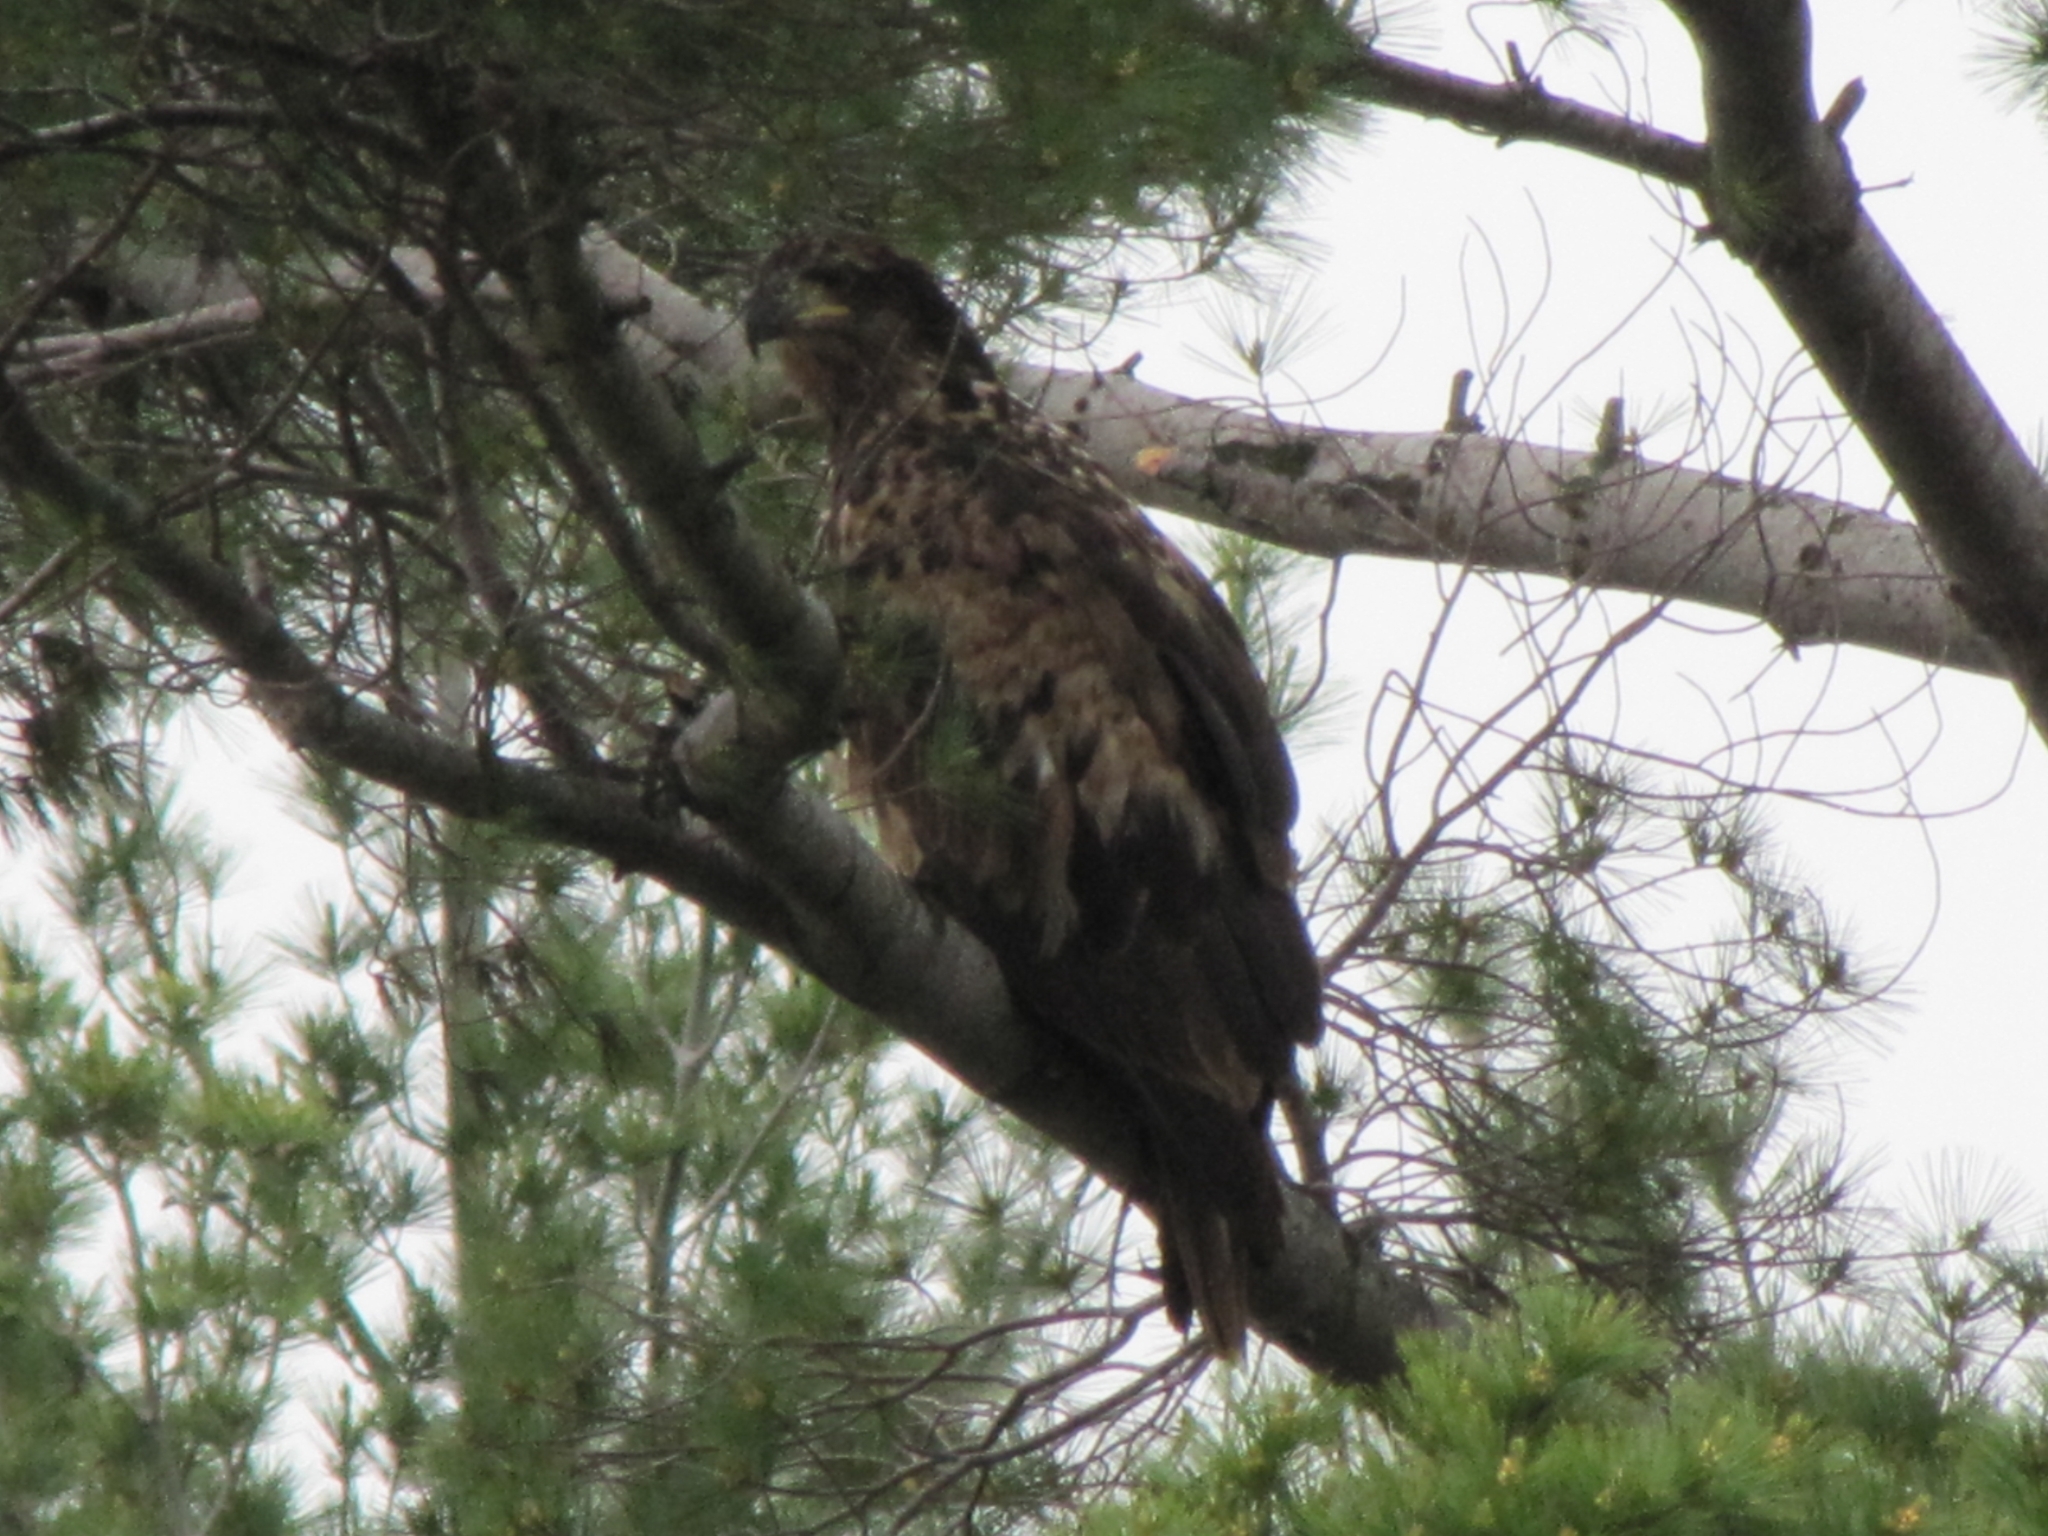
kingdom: Animalia
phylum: Chordata
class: Aves
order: Accipitriformes
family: Accipitridae
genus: Haliaeetus
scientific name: Haliaeetus leucocephalus
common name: Bald eagle
